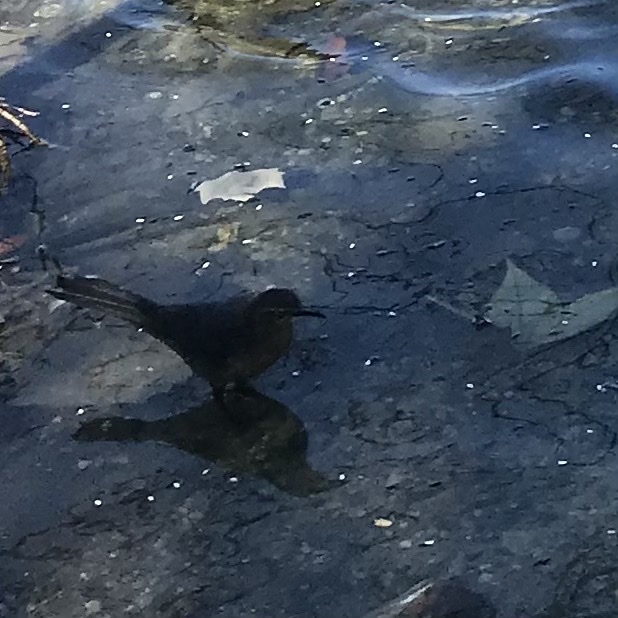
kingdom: Animalia
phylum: Chordata
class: Aves
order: Passeriformes
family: Icteridae
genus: Quiscalus
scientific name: Quiscalus mexicanus
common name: Great-tailed grackle
